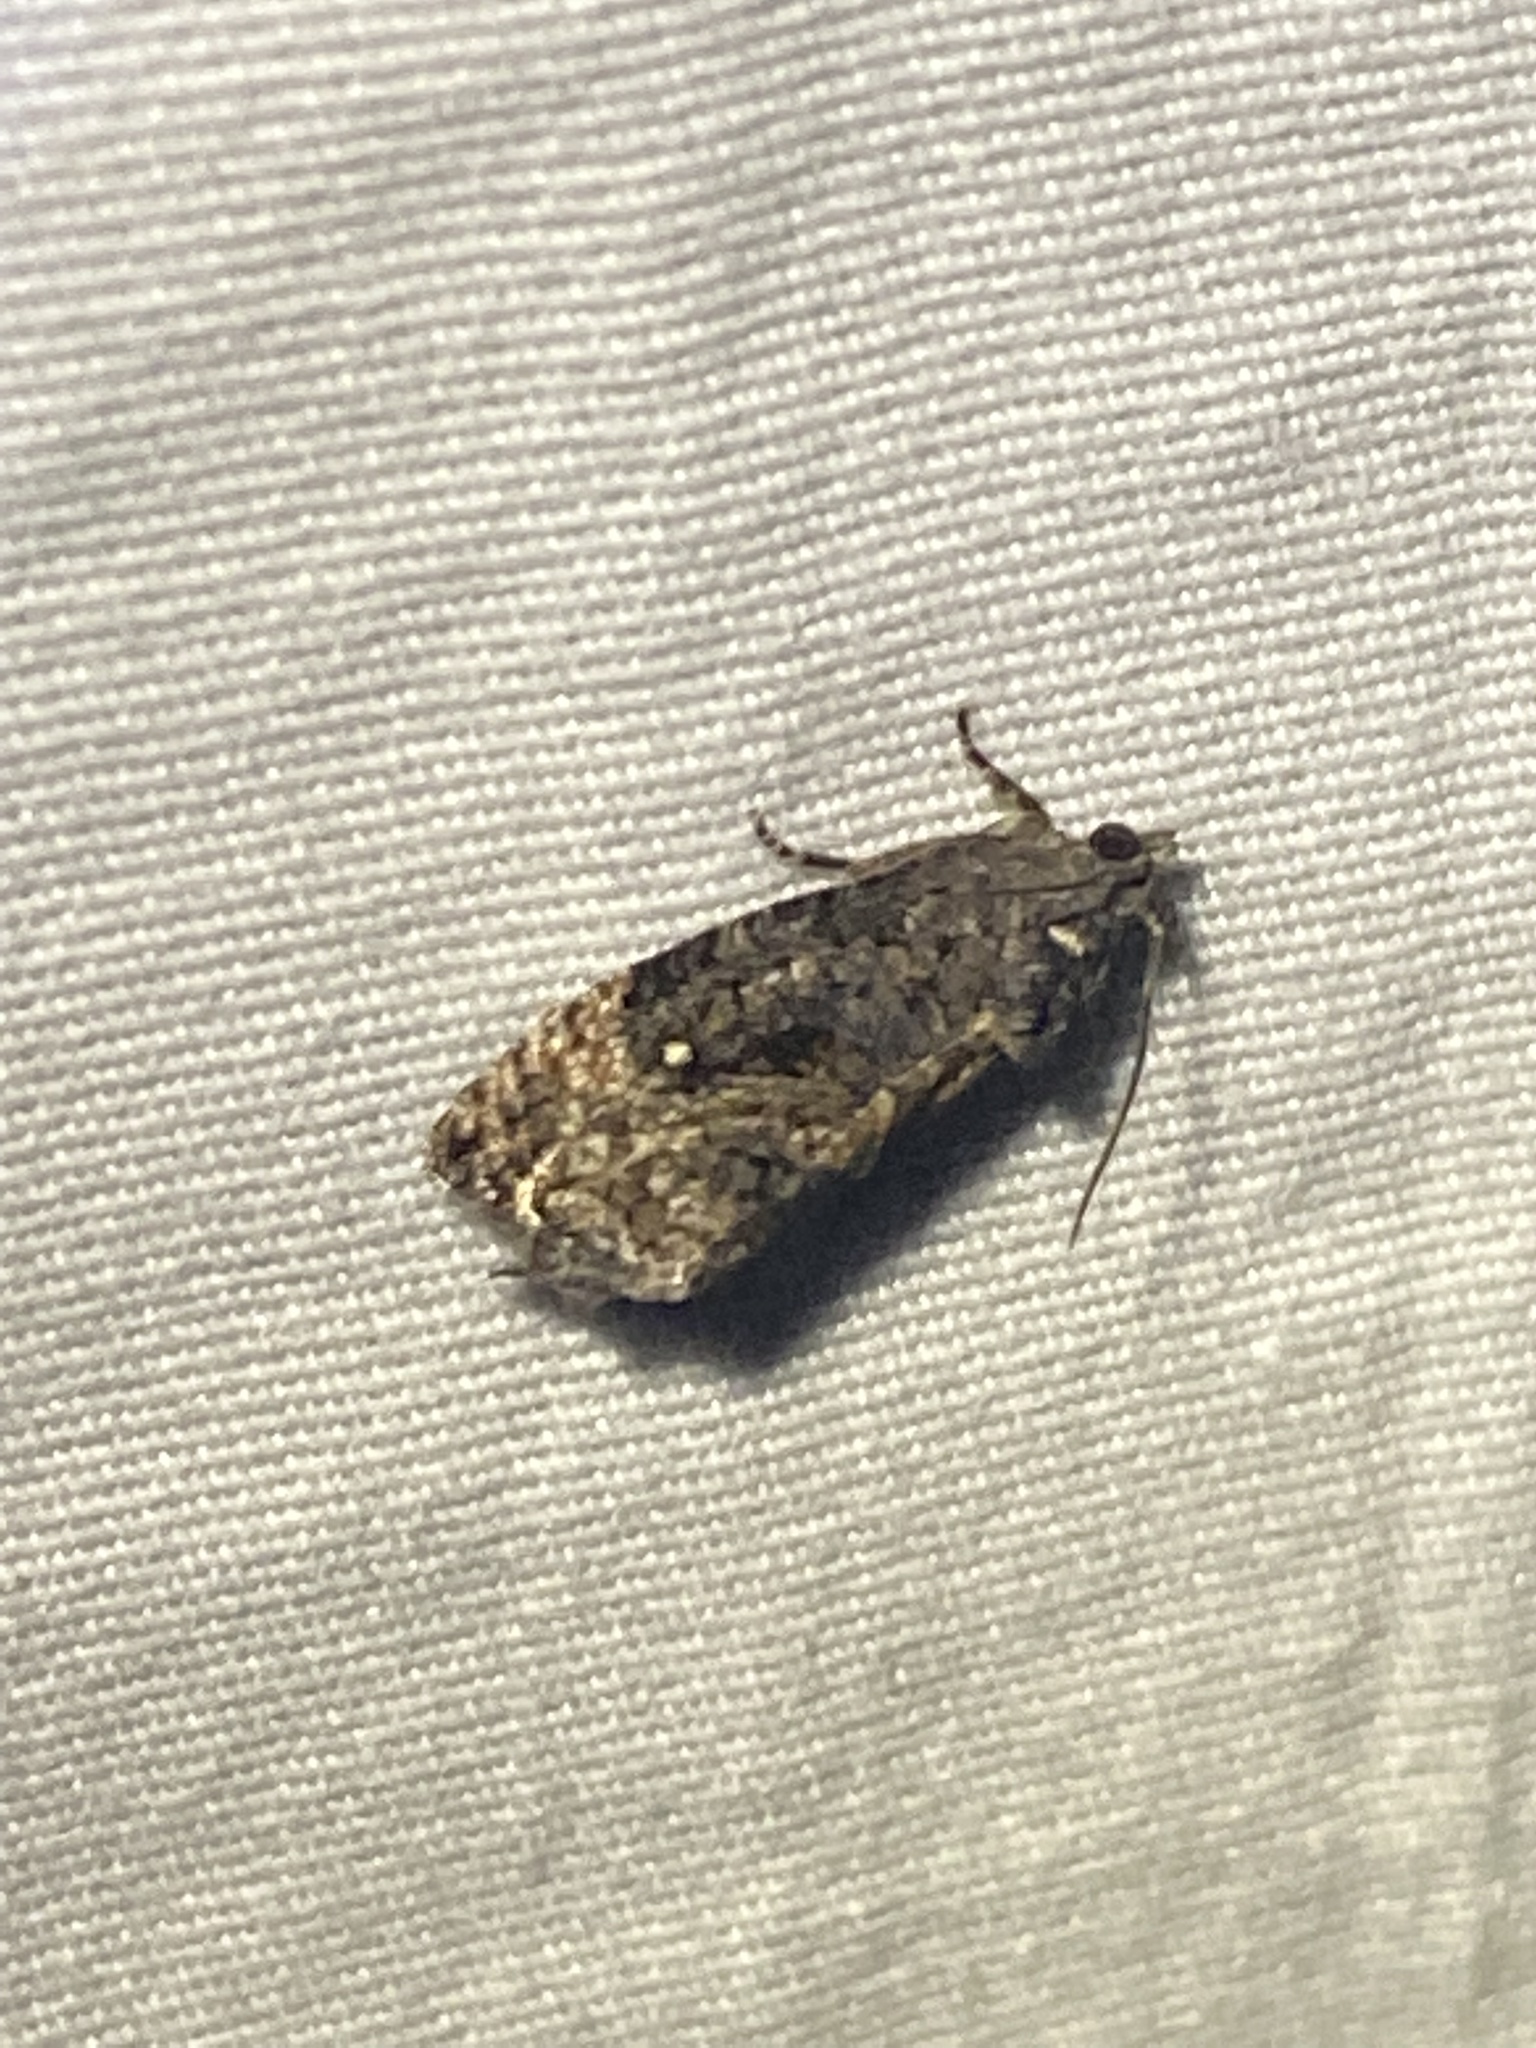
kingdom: Animalia
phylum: Arthropoda
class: Insecta
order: Lepidoptera
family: Tortricidae
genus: Gymnandrosoma
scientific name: Gymnandrosoma punctidiscanum
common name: Dotted ecdytolopha moth
